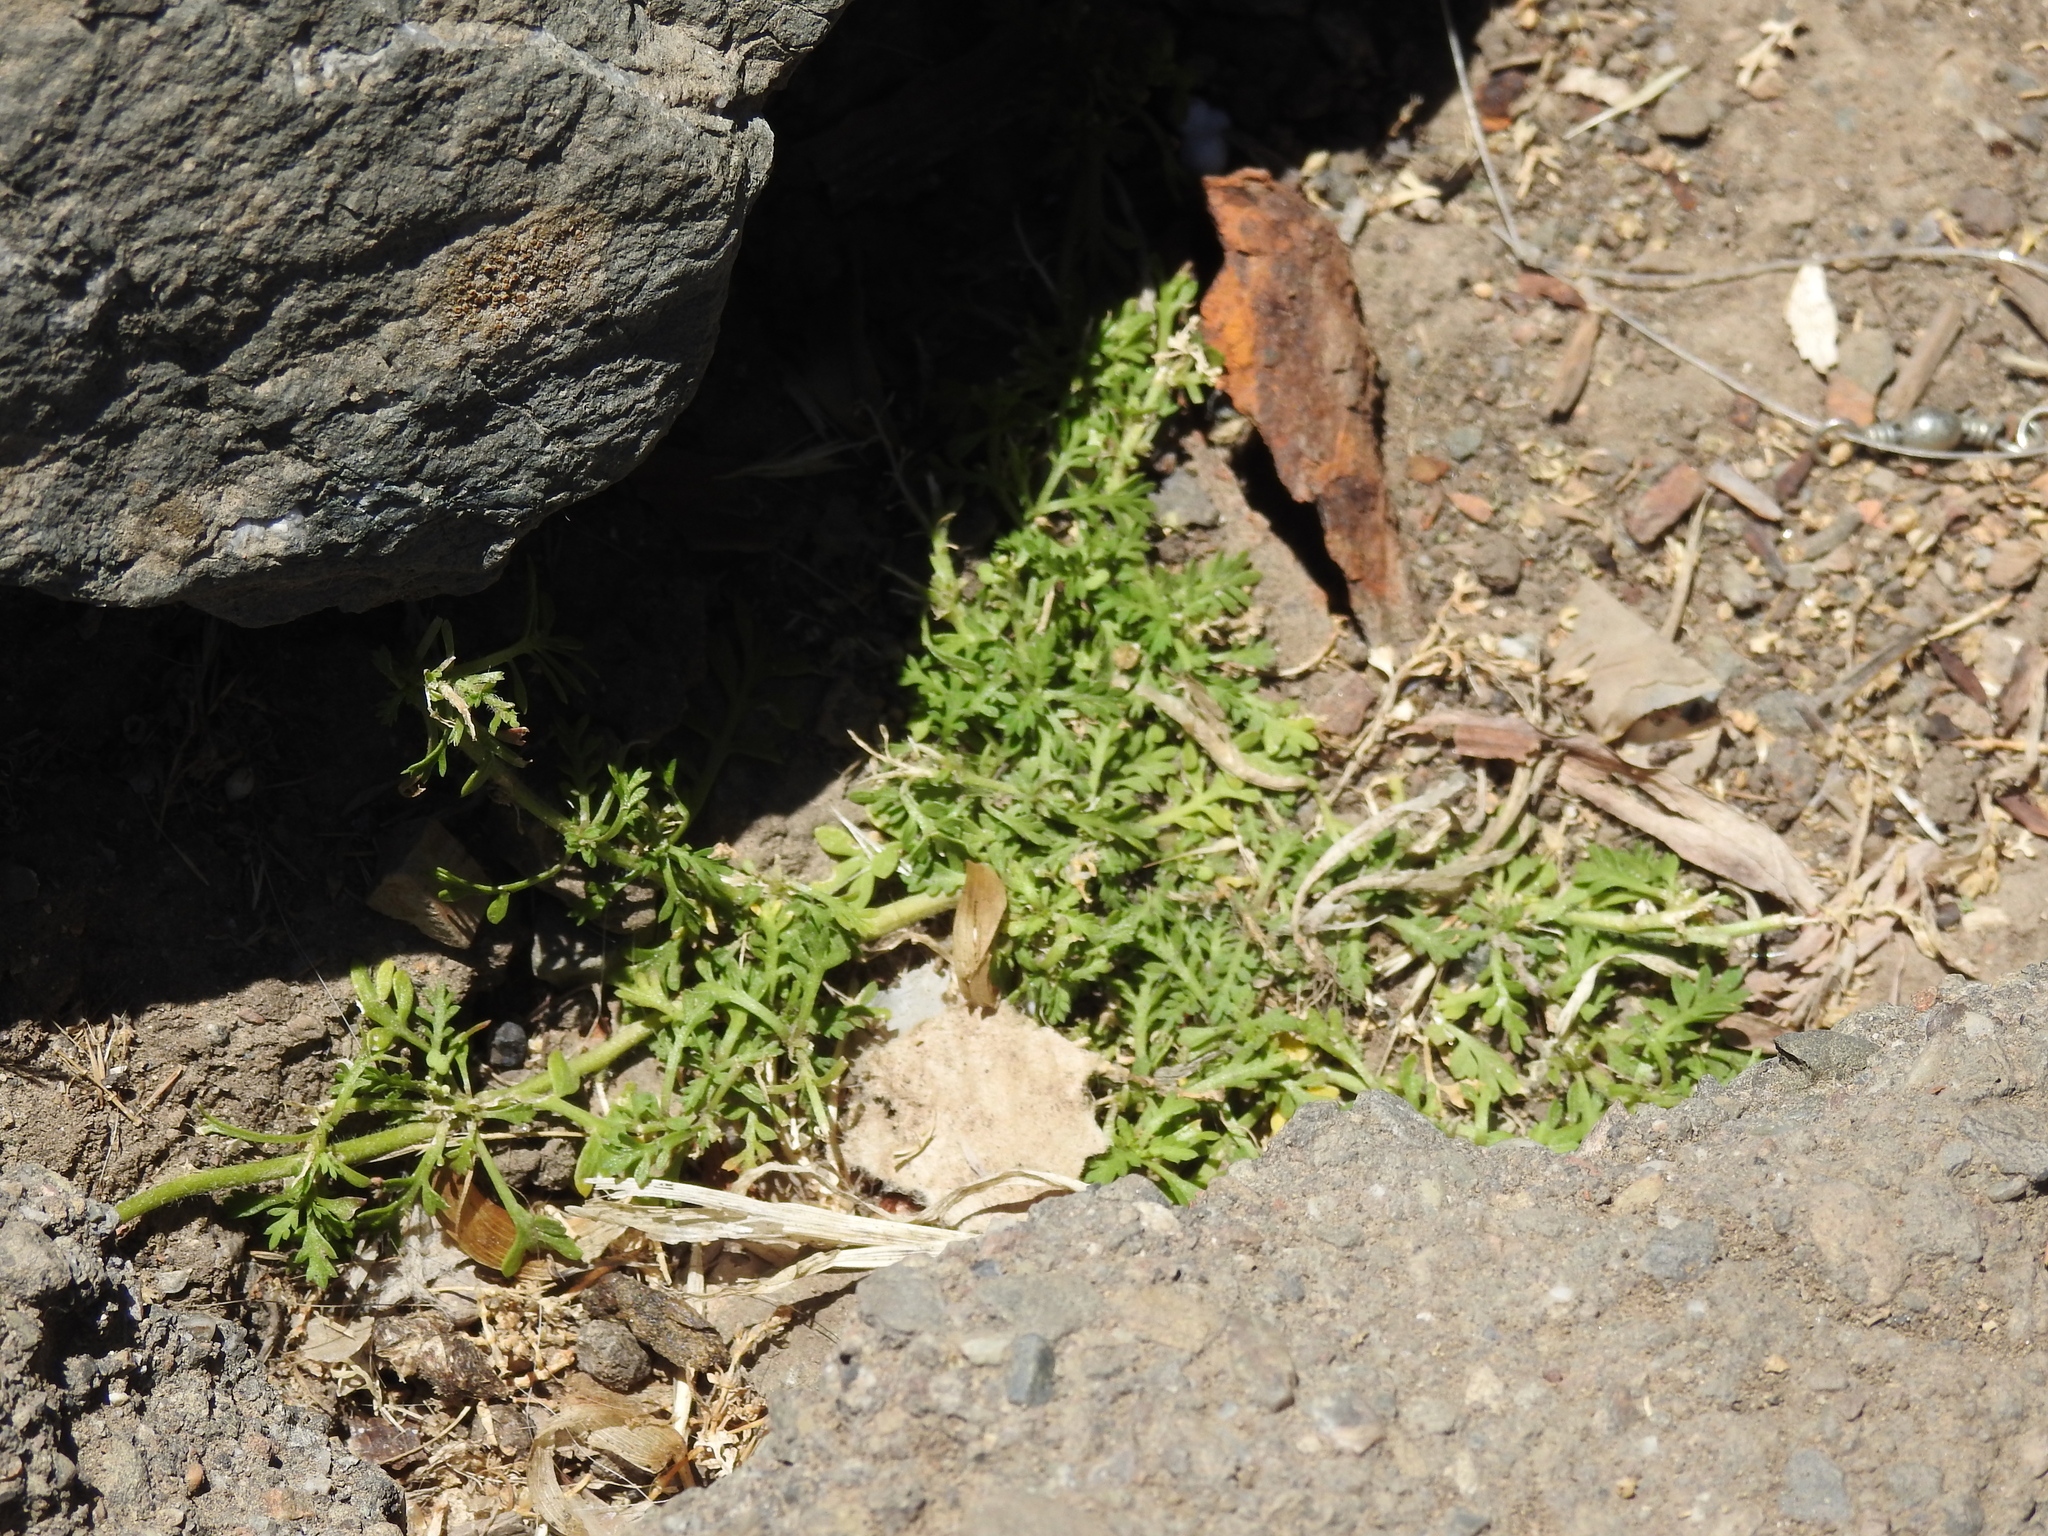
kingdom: Plantae
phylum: Tracheophyta
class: Magnoliopsida
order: Brassicales
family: Brassicaceae
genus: Lepidium
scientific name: Lepidium didymum
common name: Lesser swinecress
